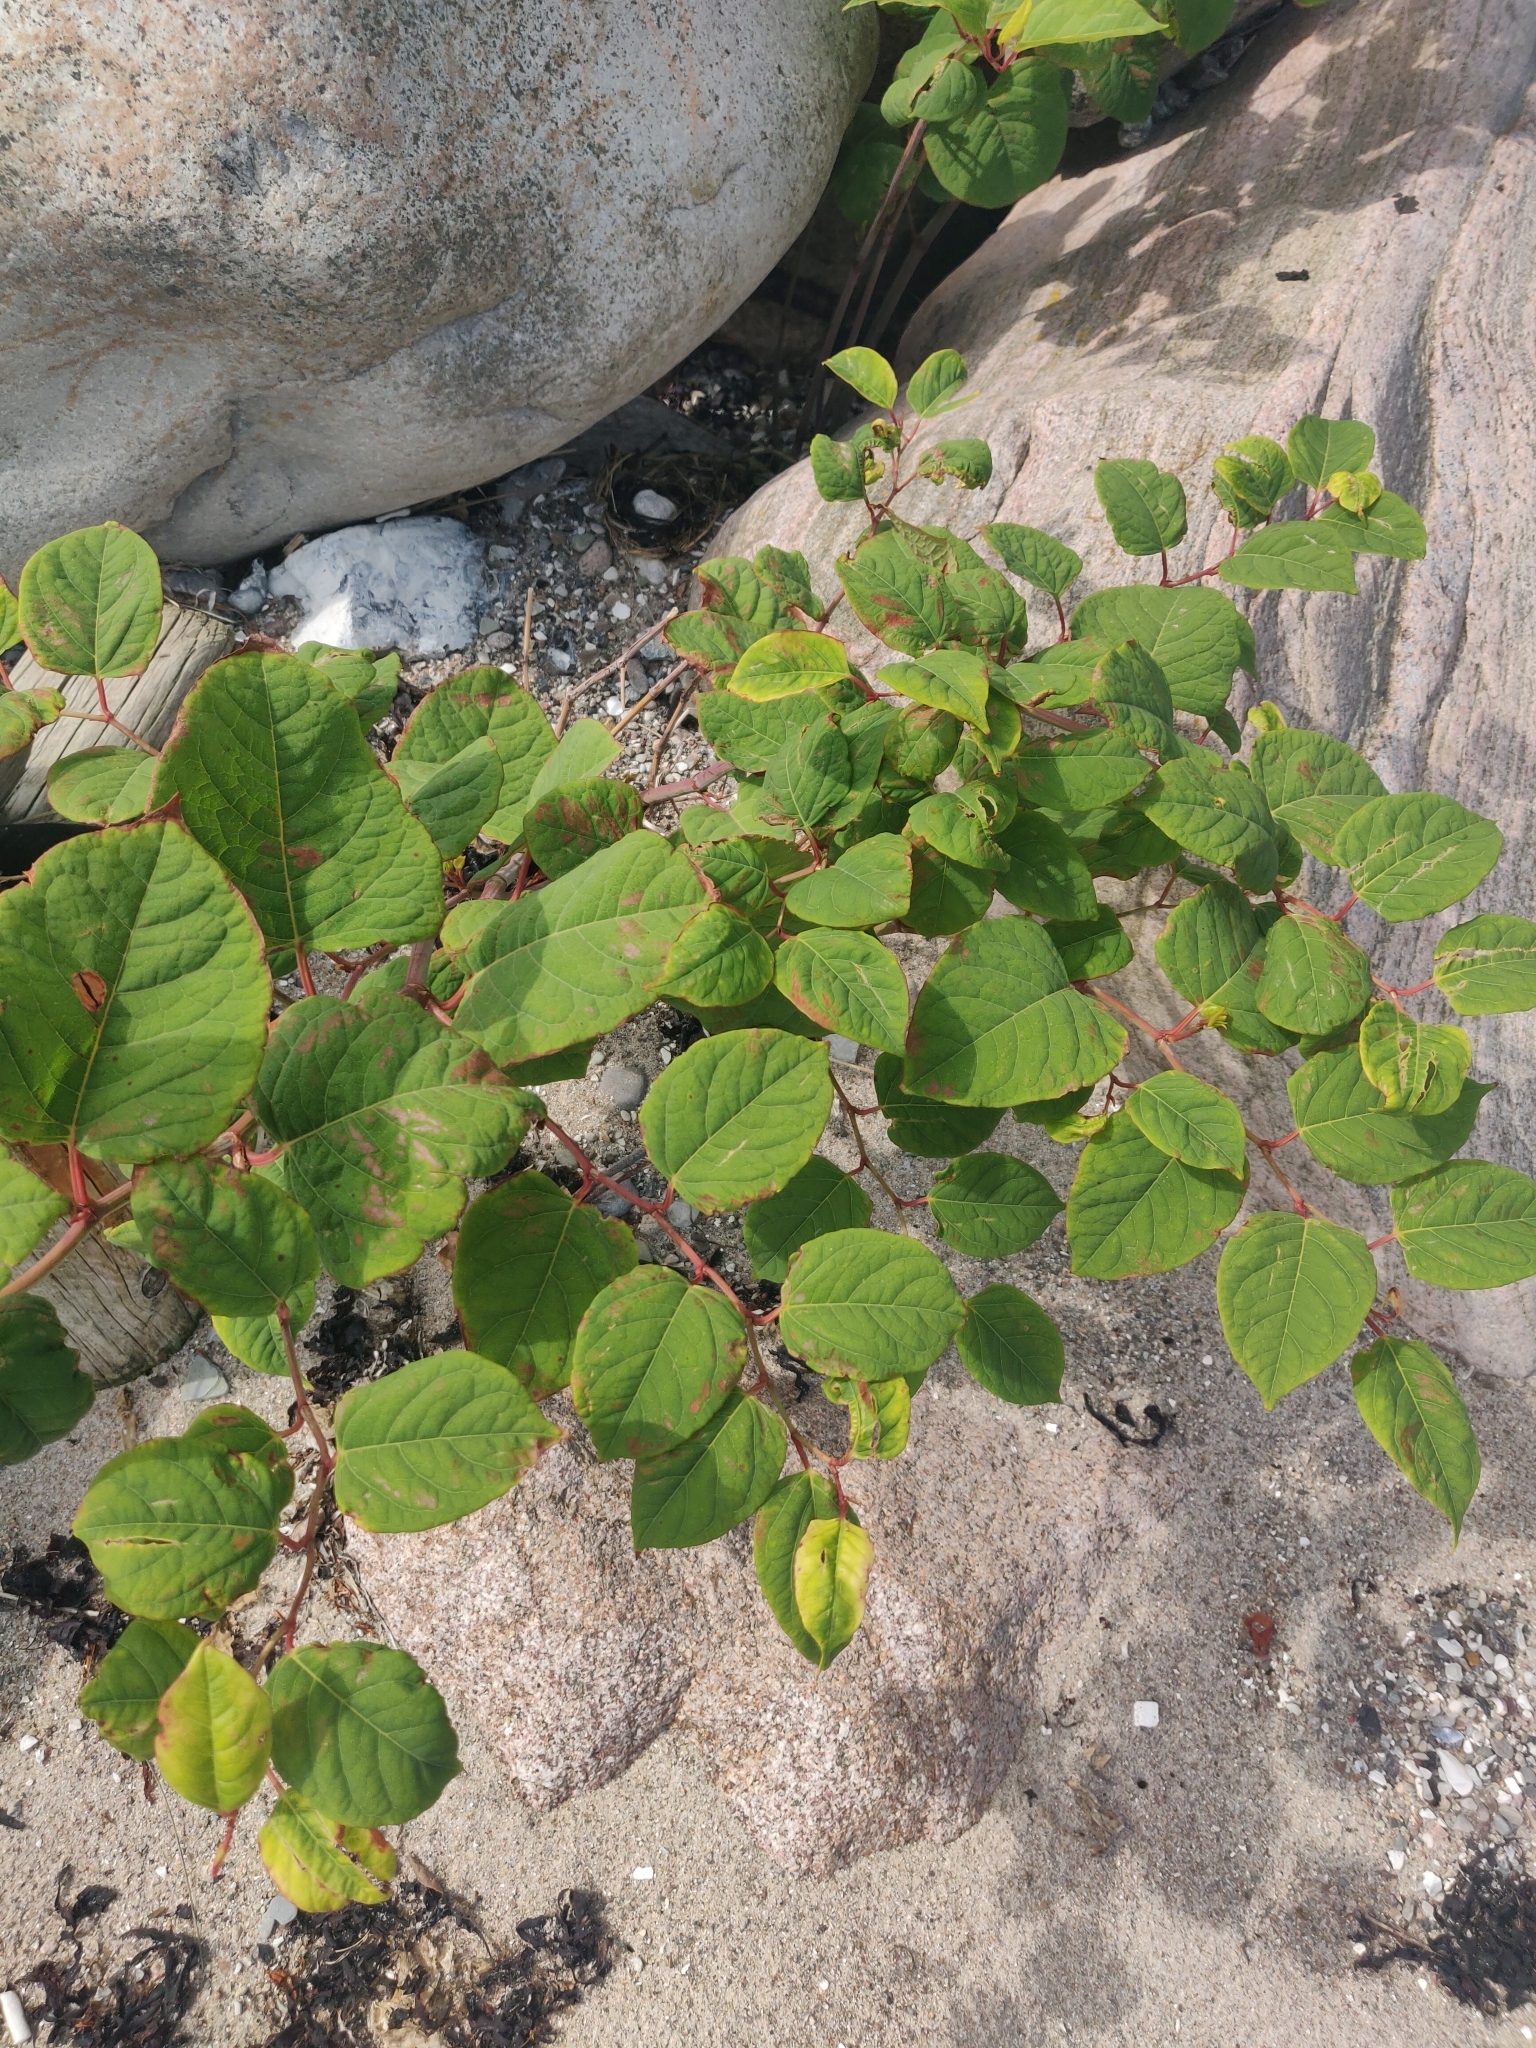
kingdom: Plantae
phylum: Tracheophyta
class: Magnoliopsida
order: Caryophyllales
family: Polygonaceae
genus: Reynoutria
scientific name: Reynoutria japonica
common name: Japanese knotweed
